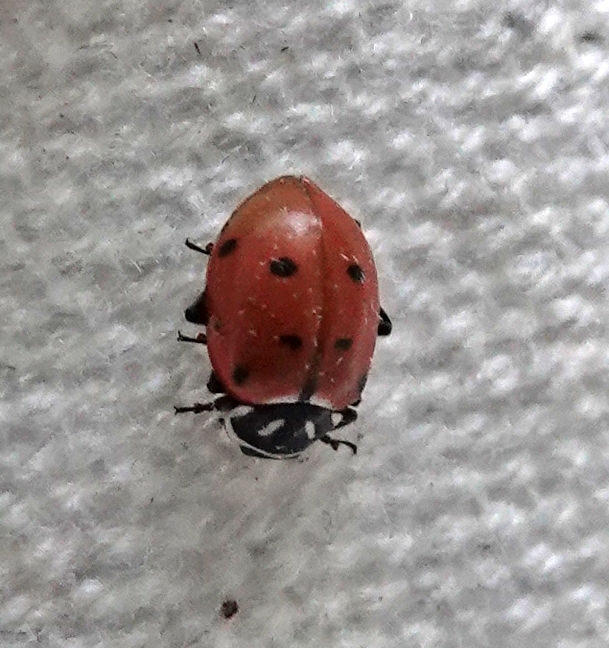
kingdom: Animalia
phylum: Arthropoda
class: Insecta
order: Coleoptera
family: Coccinellidae
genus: Hippodamia
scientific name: Hippodamia convergens
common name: Convergent lady beetle
